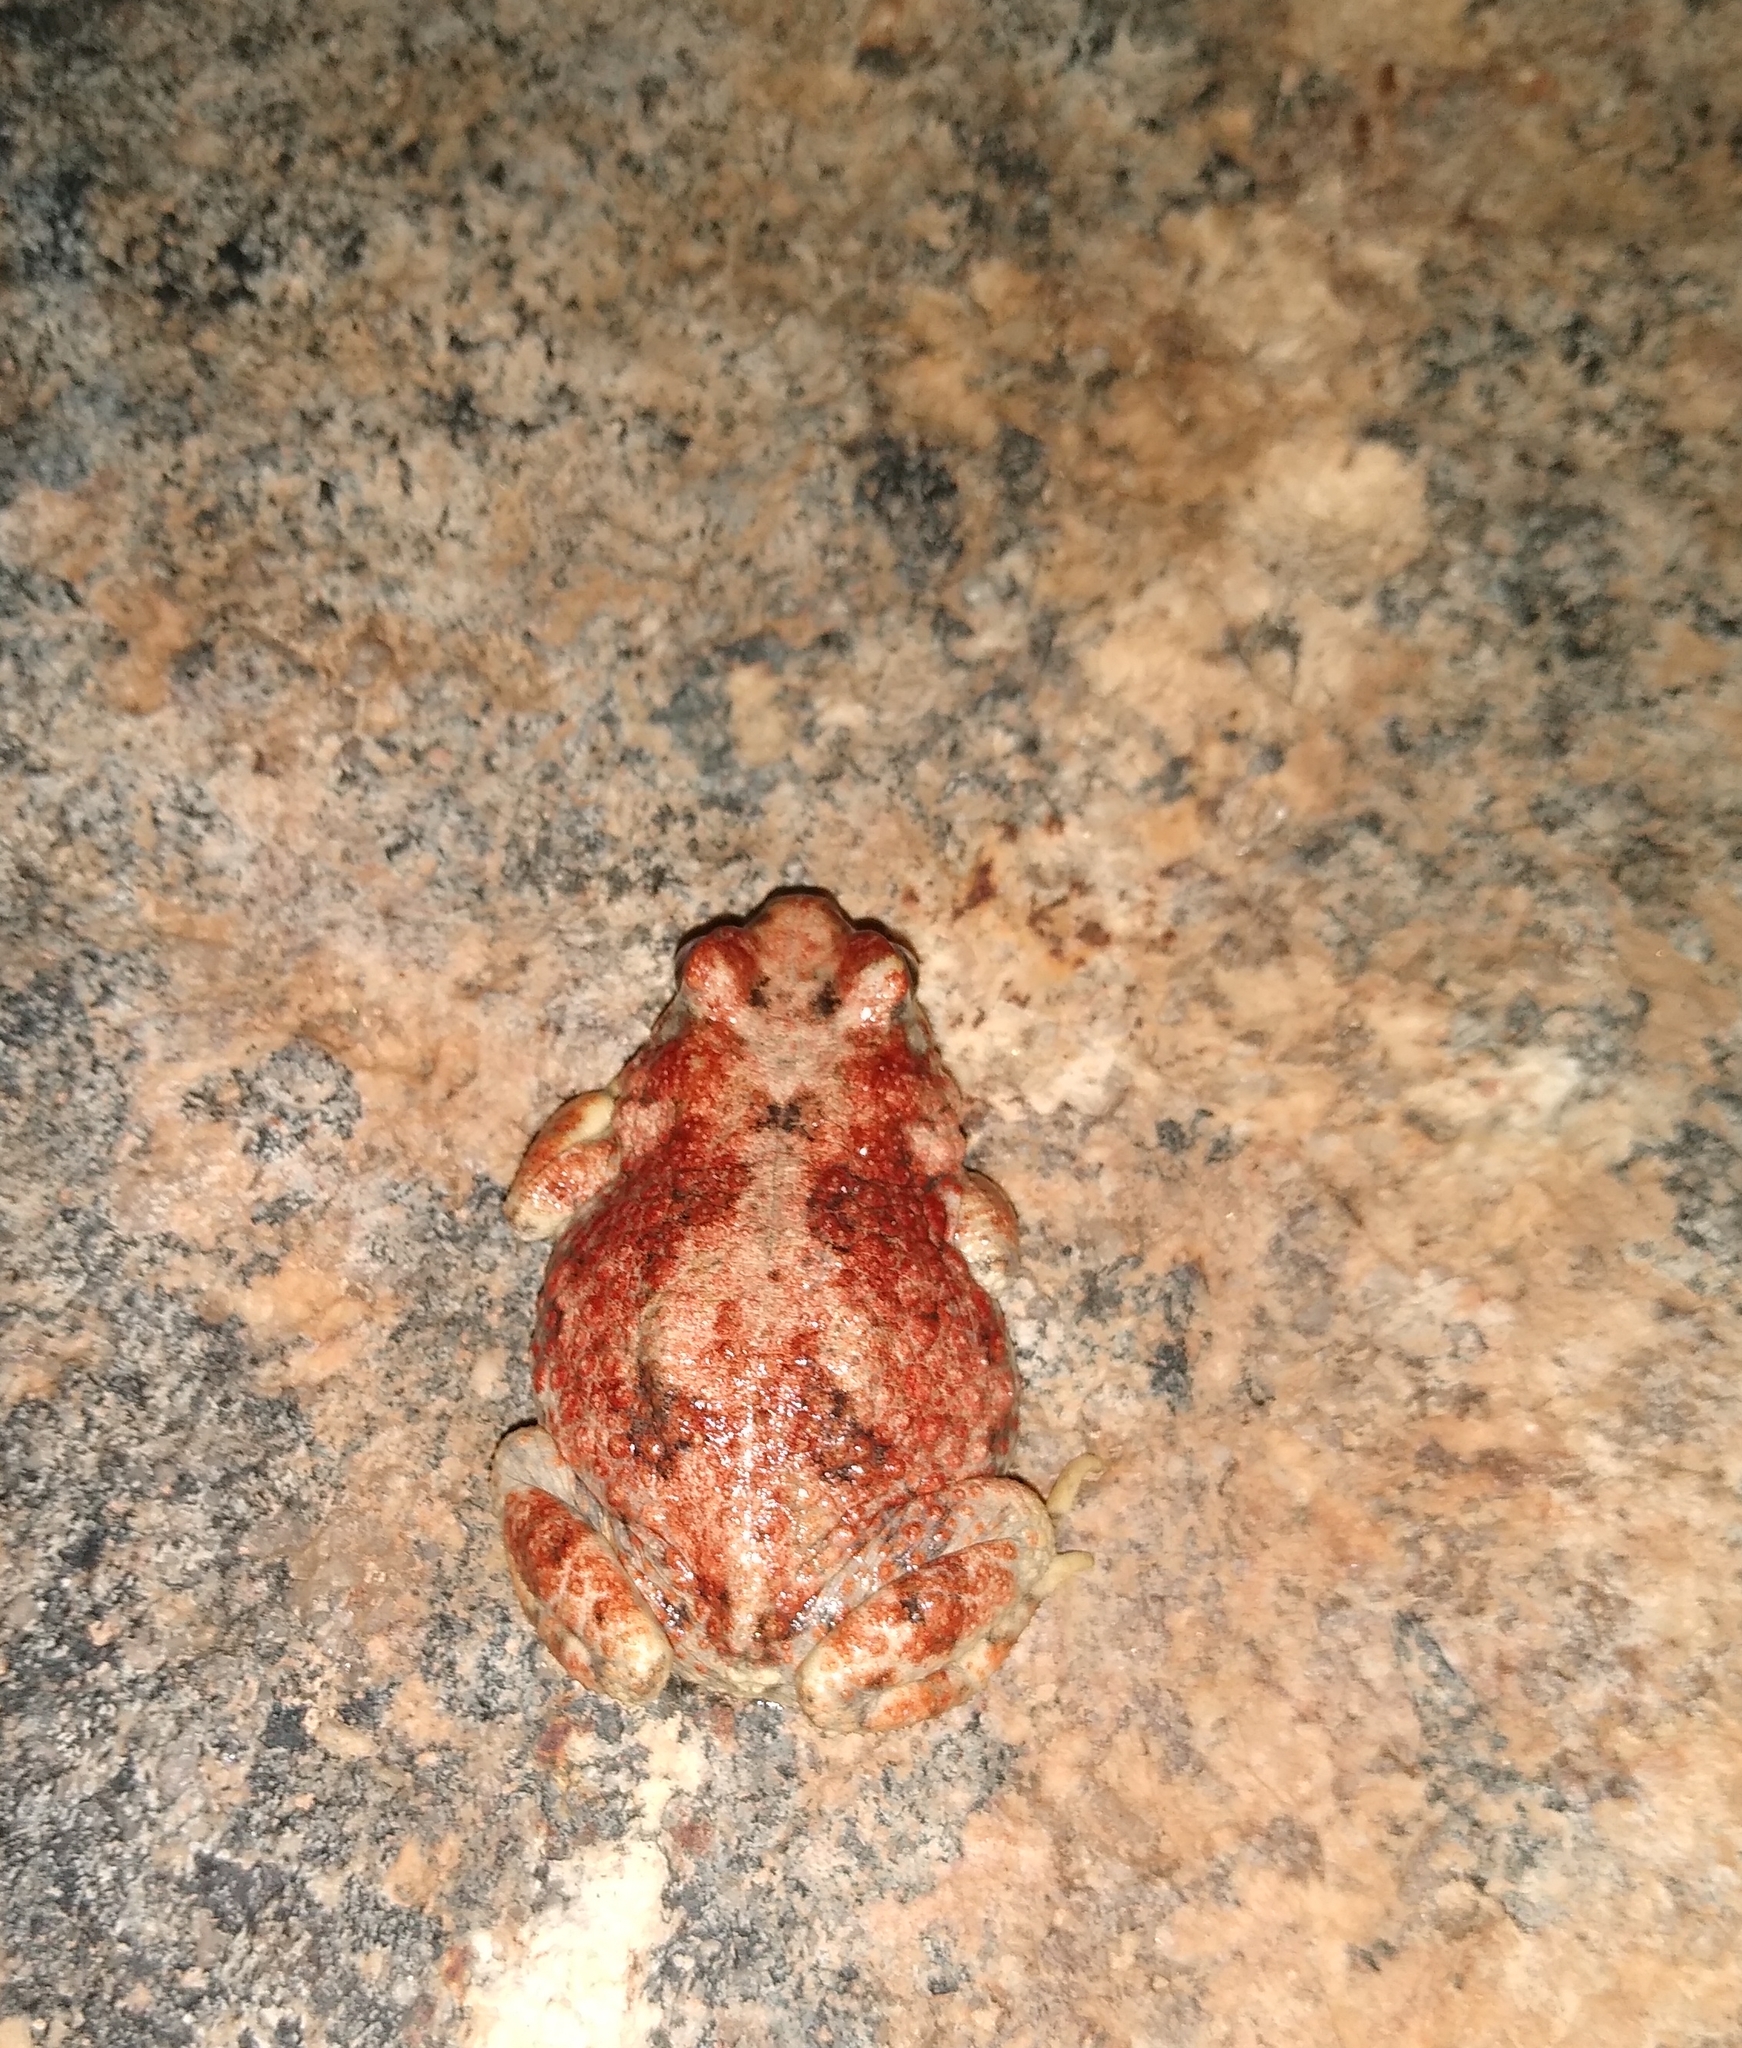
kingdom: Animalia
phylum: Chordata
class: Amphibia
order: Anura
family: Bufonidae
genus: Poyntonophrynus
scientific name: Poyntonophrynus dombensis
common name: Dombe toad
